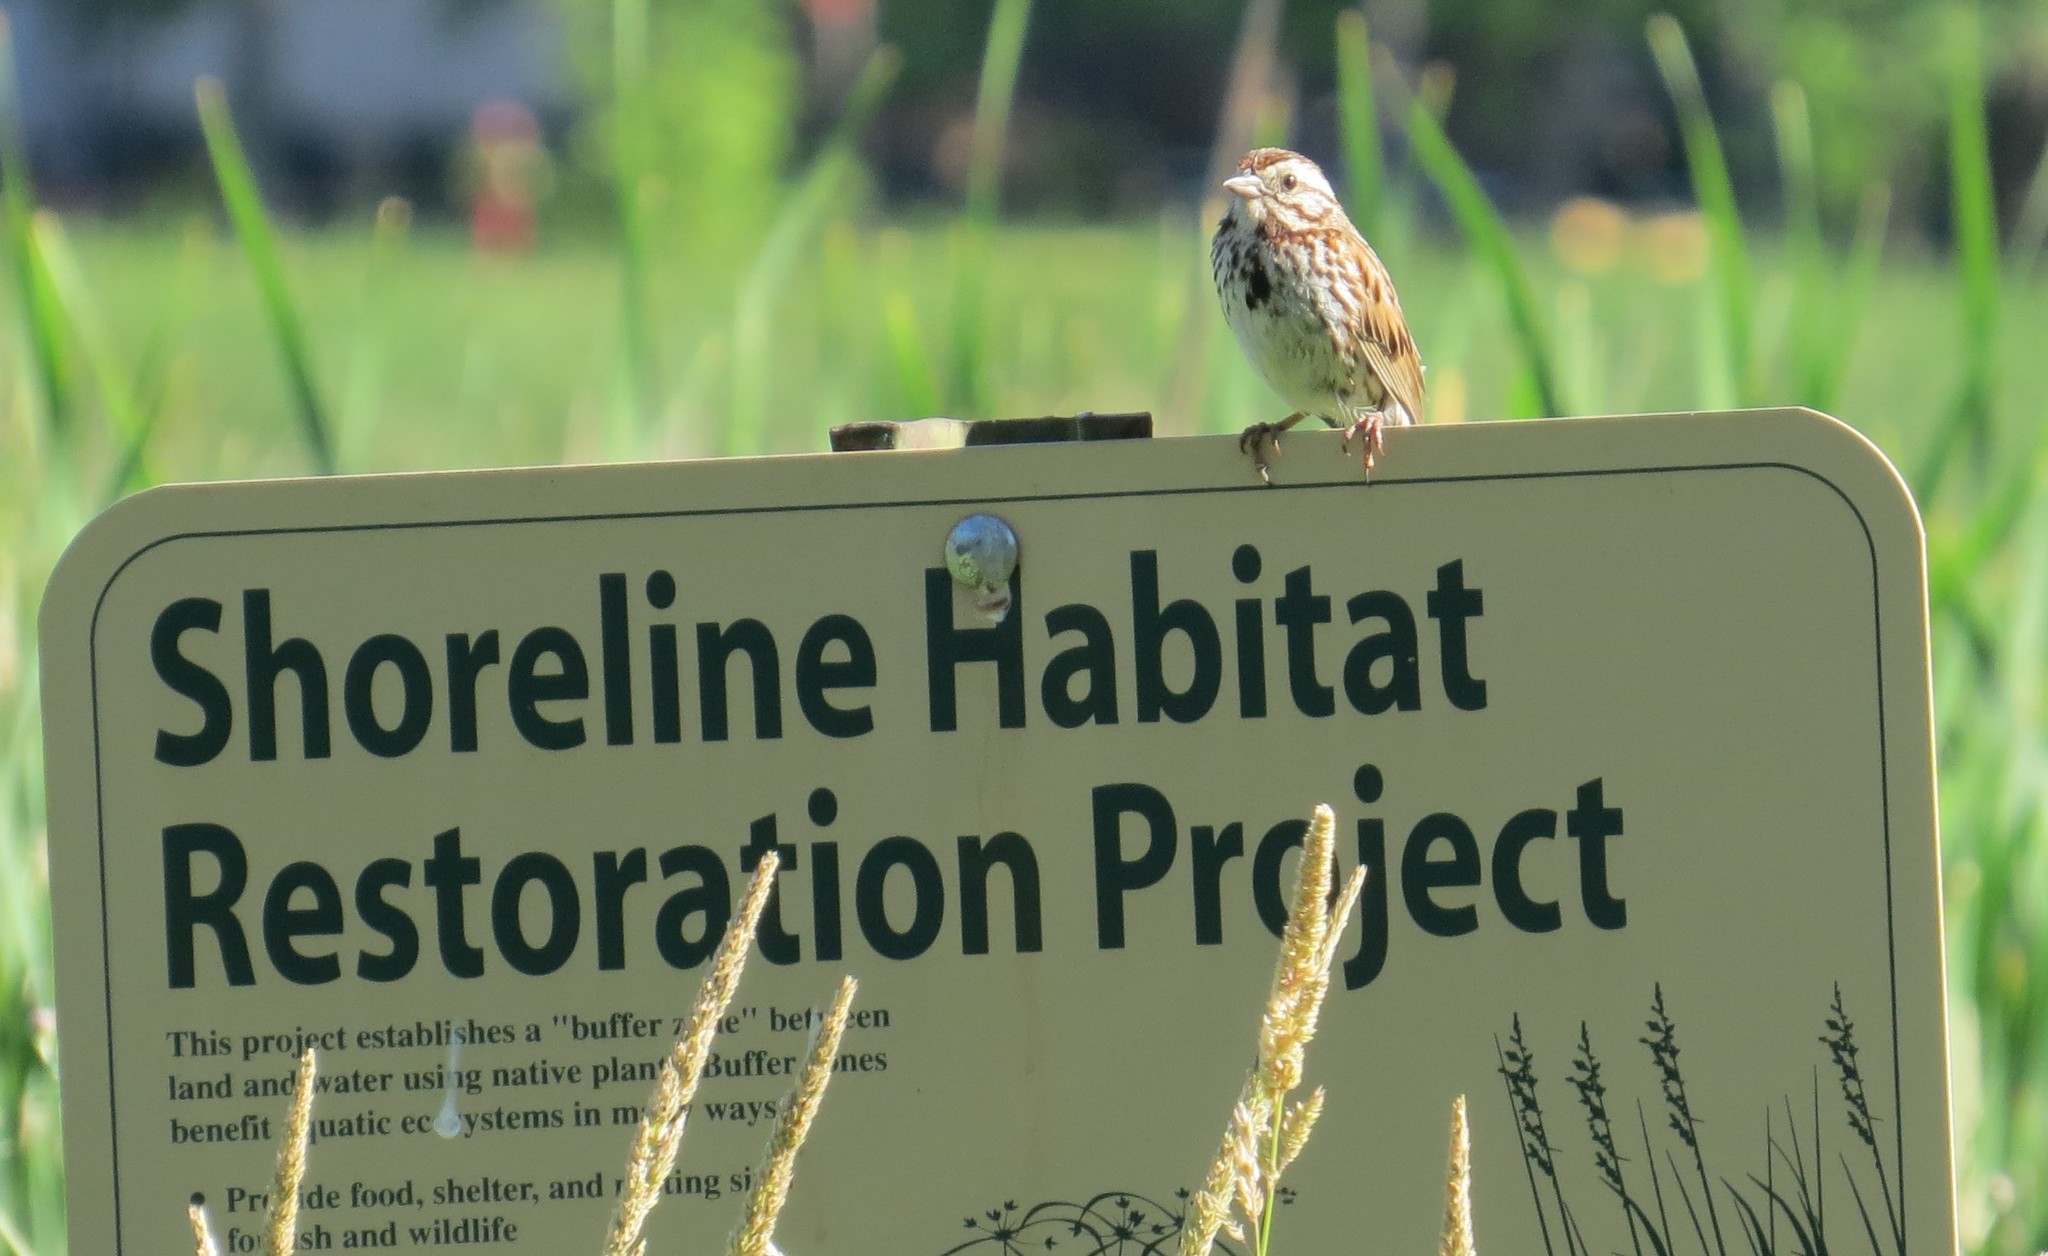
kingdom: Animalia
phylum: Chordata
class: Aves
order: Passeriformes
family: Passerellidae
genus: Melospiza
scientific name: Melospiza melodia
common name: Song sparrow
